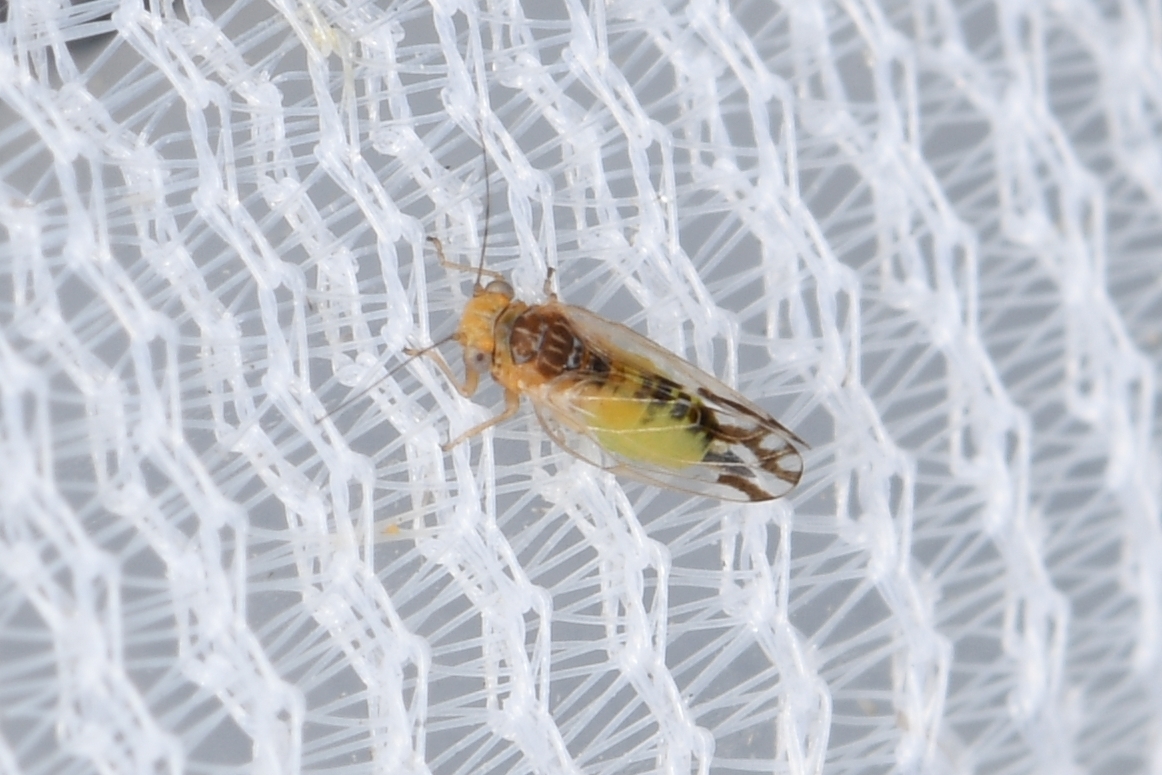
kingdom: Animalia
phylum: Arthropoda
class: Insecta
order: Hemiptera
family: Psyllidae
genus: Heteropsylla
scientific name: Heteropsylla texana
